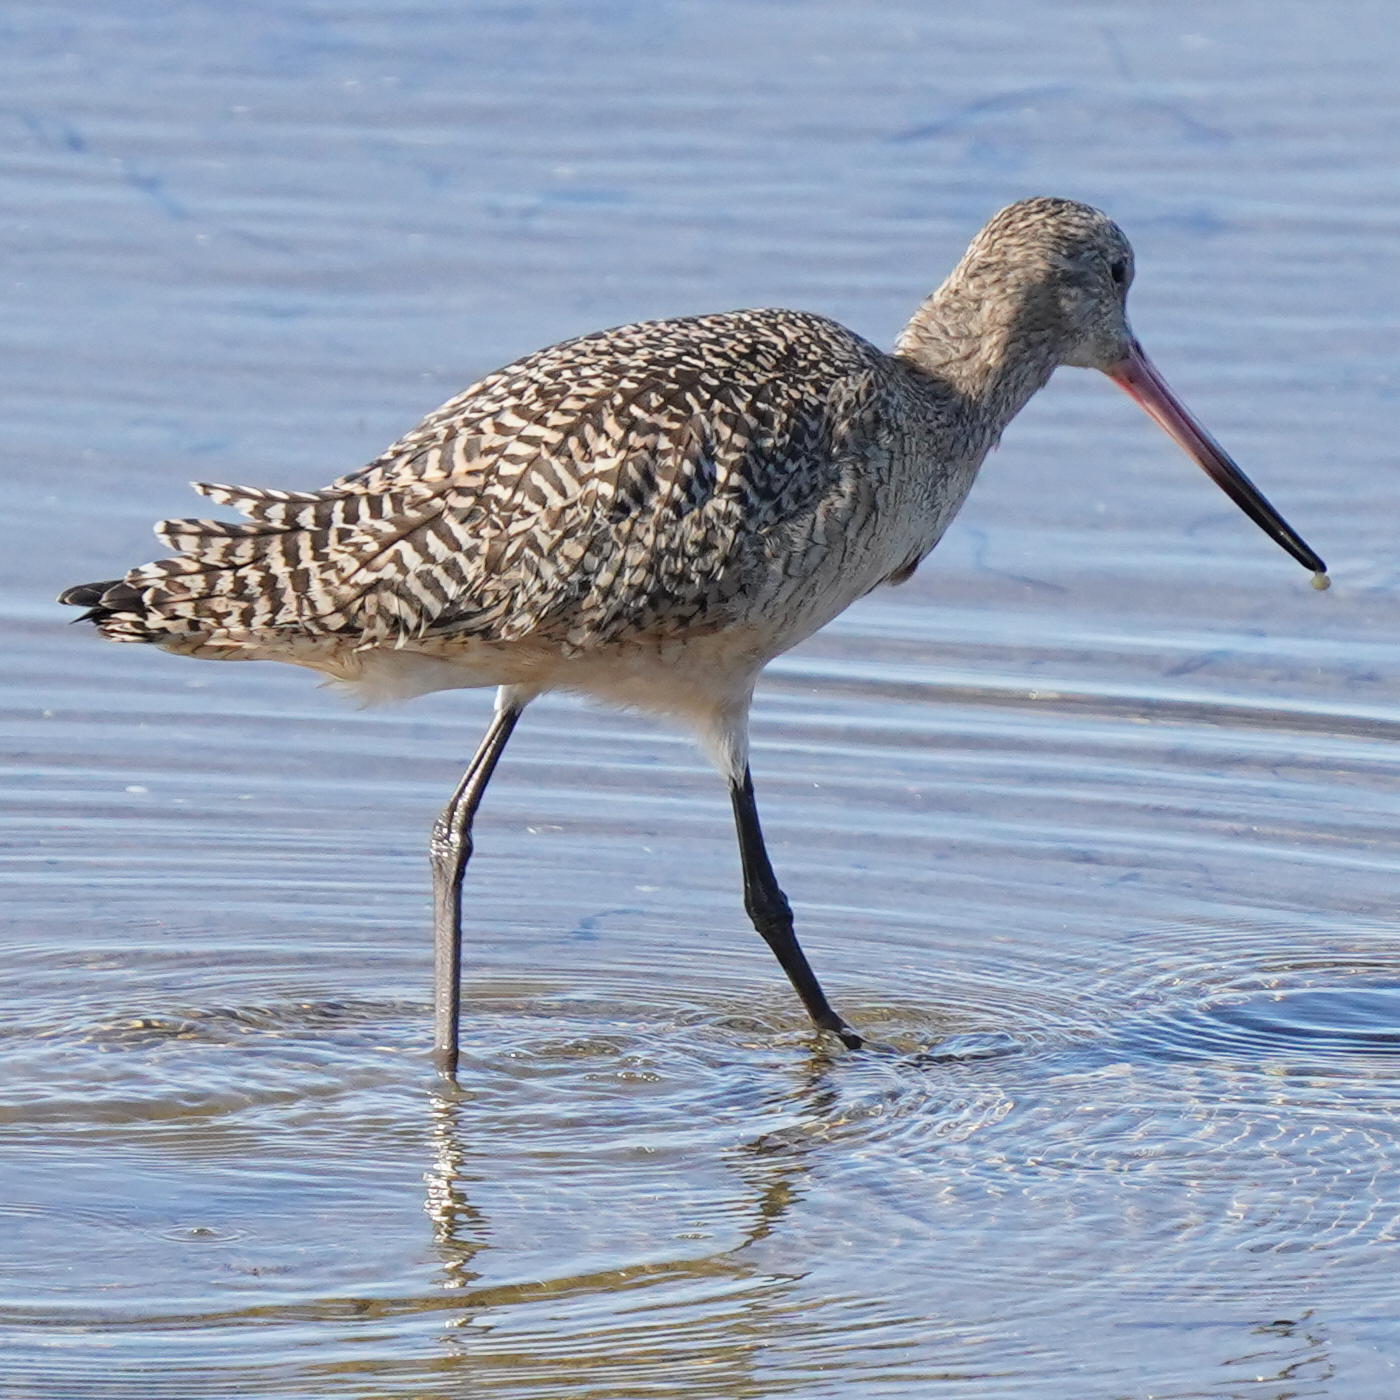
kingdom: Animalia
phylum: Chordata
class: Aves
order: Charadriiformes
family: Scolopacidae
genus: Limosa
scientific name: Limosa fedoa
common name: Marbled godwit
